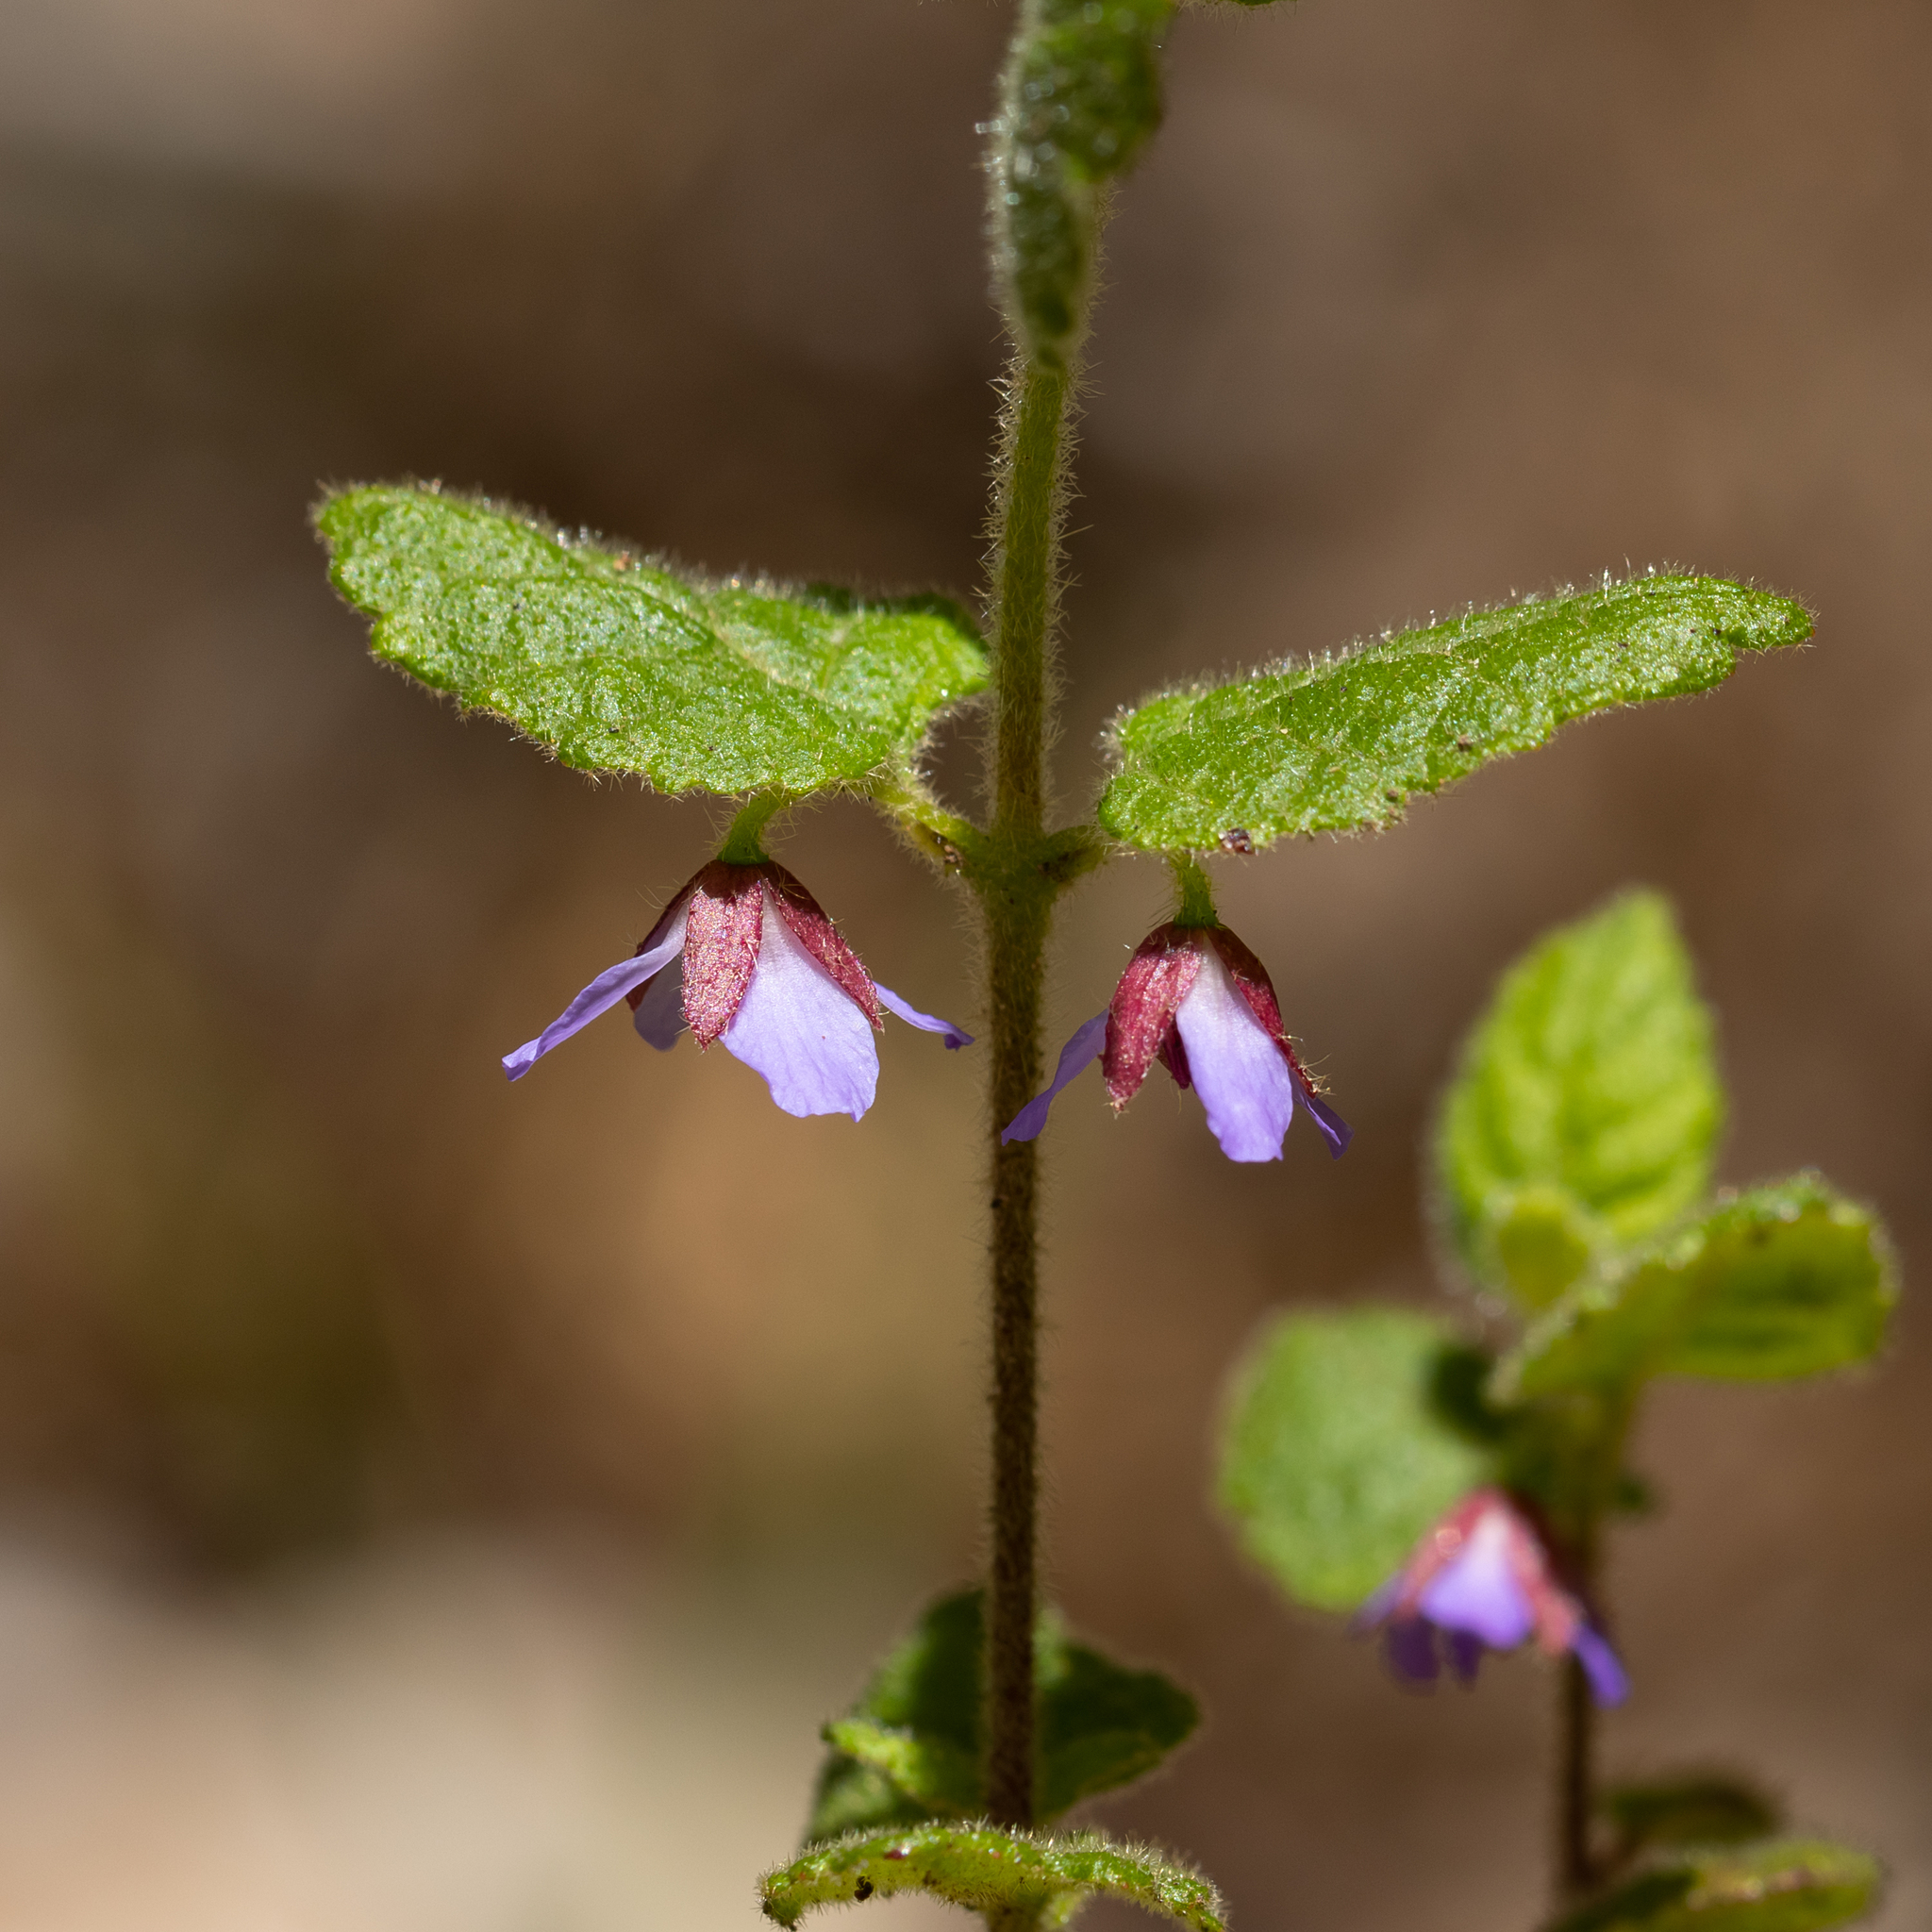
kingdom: Plantae
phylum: Tracheophyta
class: Magnoliopsida
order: Oxalidales
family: Elaeocarpaceae
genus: Tremandra
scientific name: Tremandra stelligera
